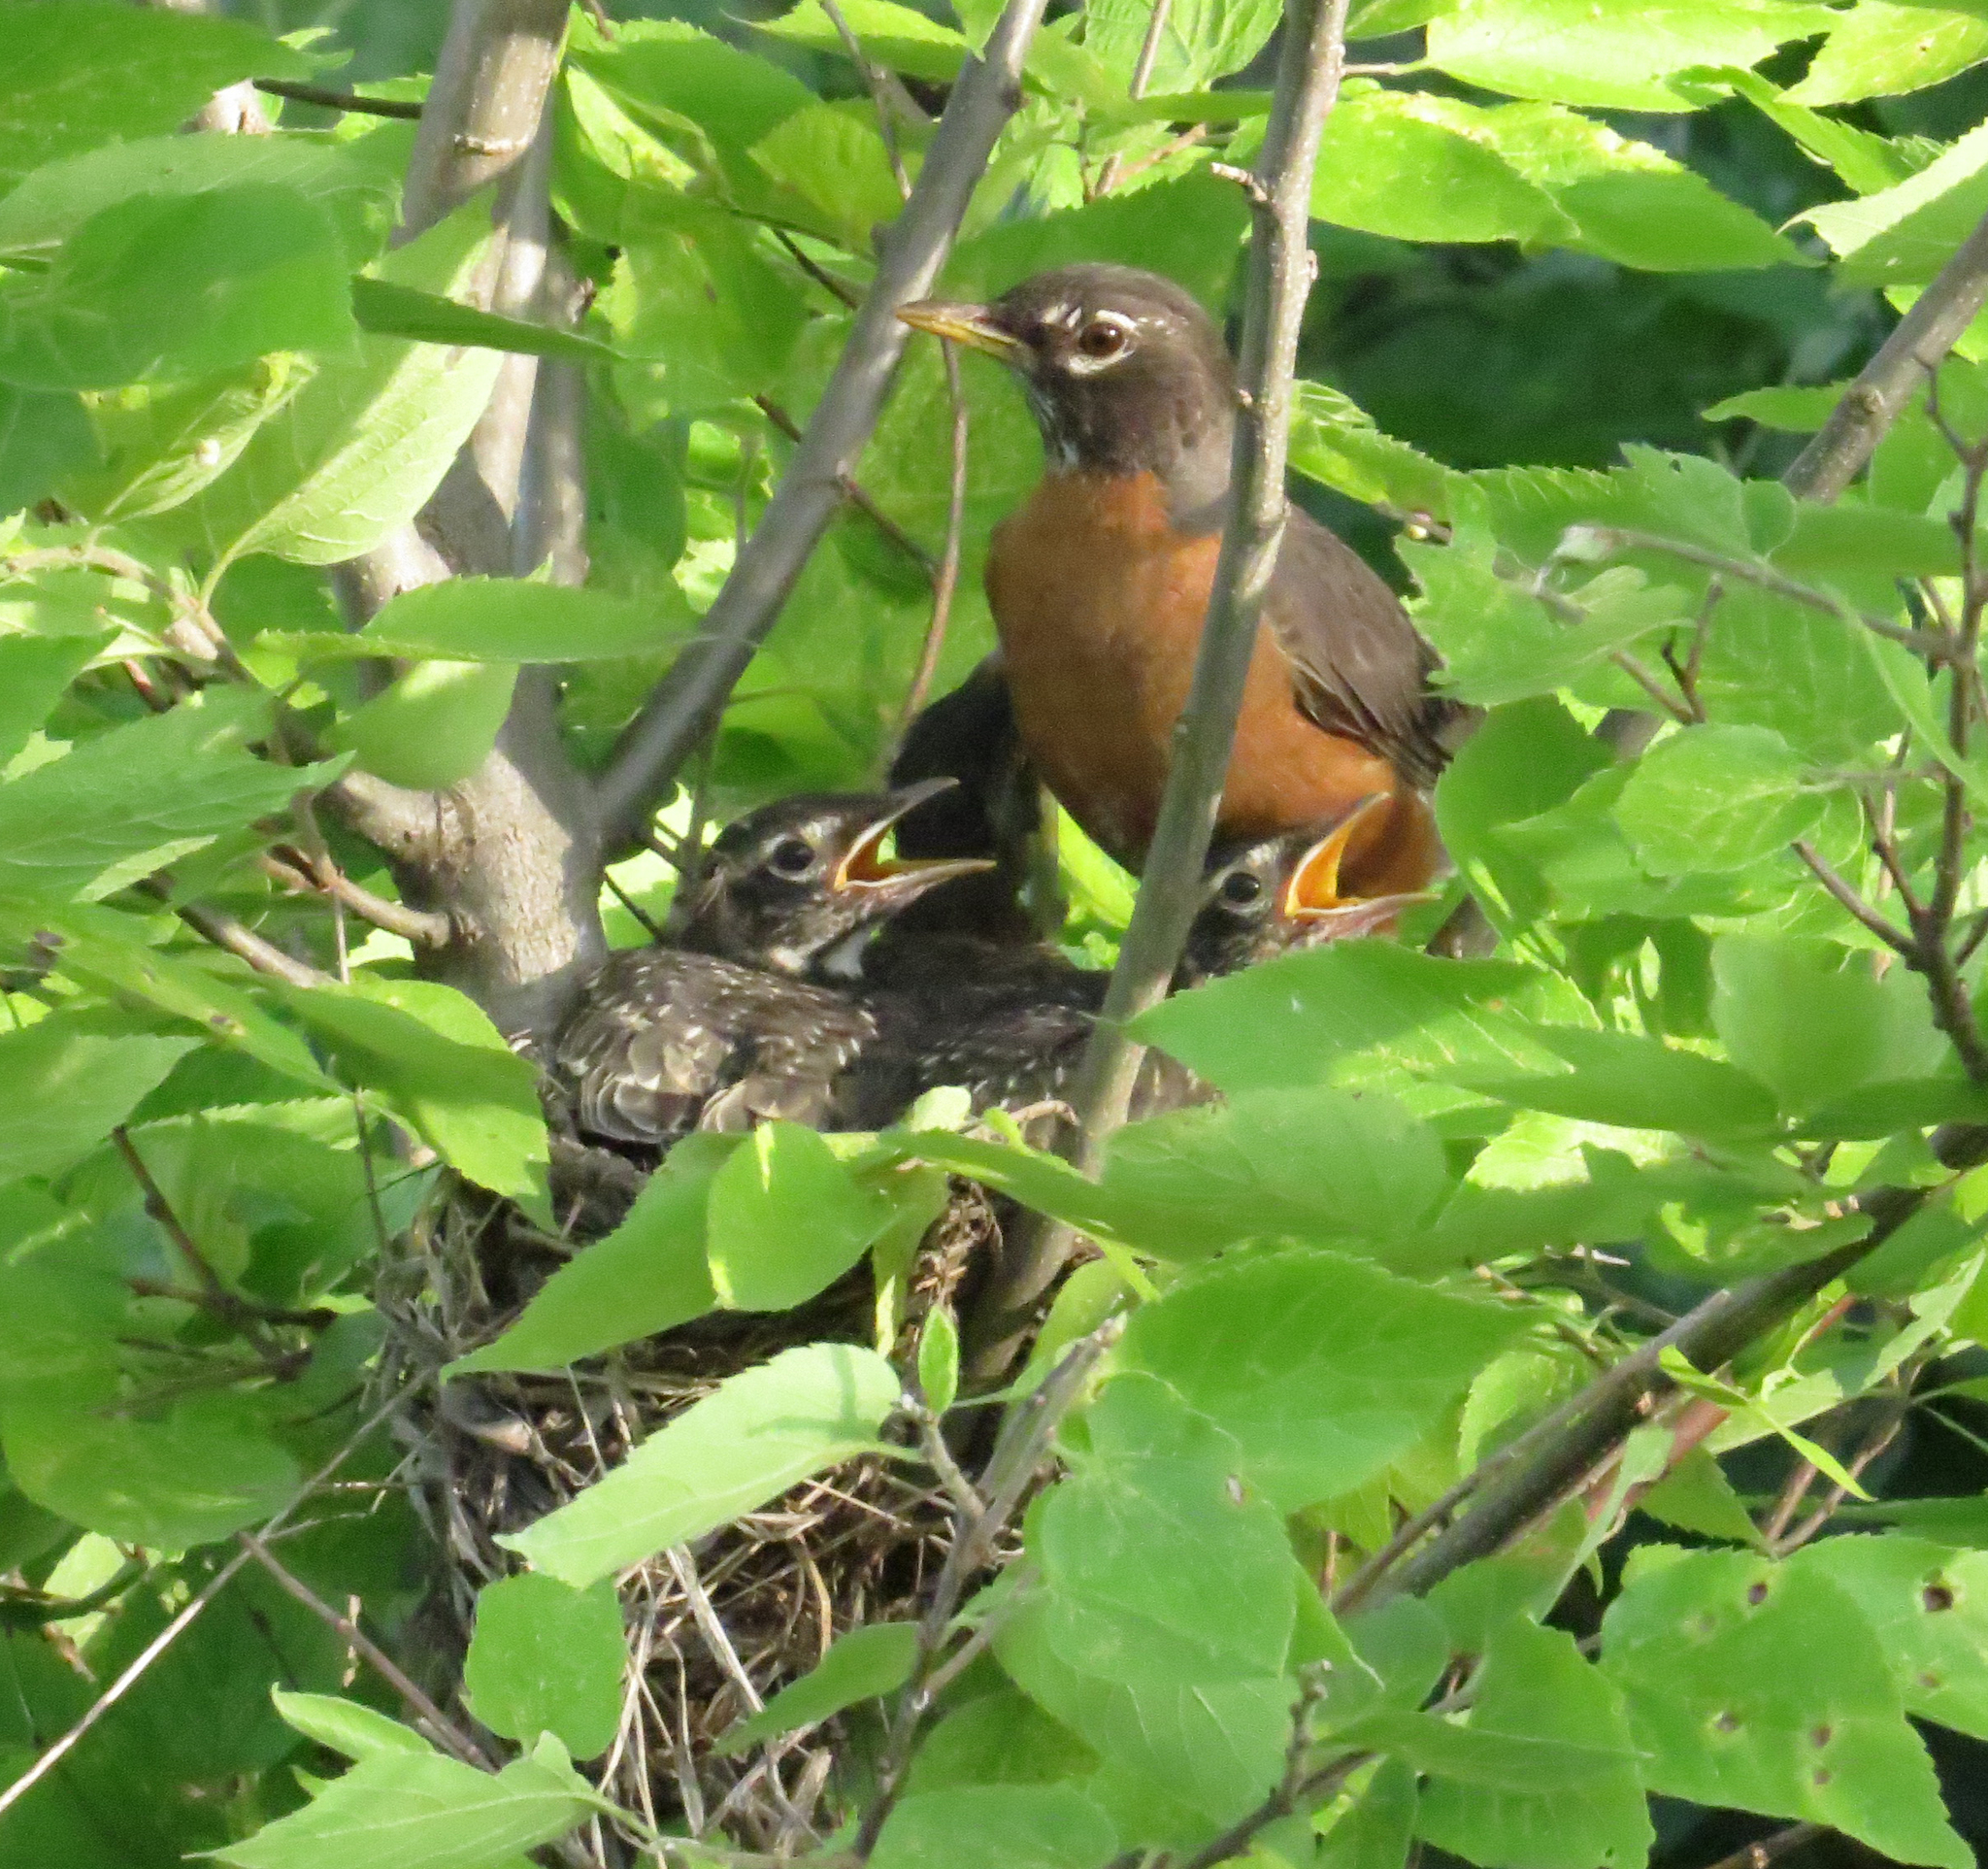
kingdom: Animalia
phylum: Chordata
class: Aves
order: Passeriformes
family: Turdidae
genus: Turdus
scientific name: Turdus migratorius
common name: American robin
